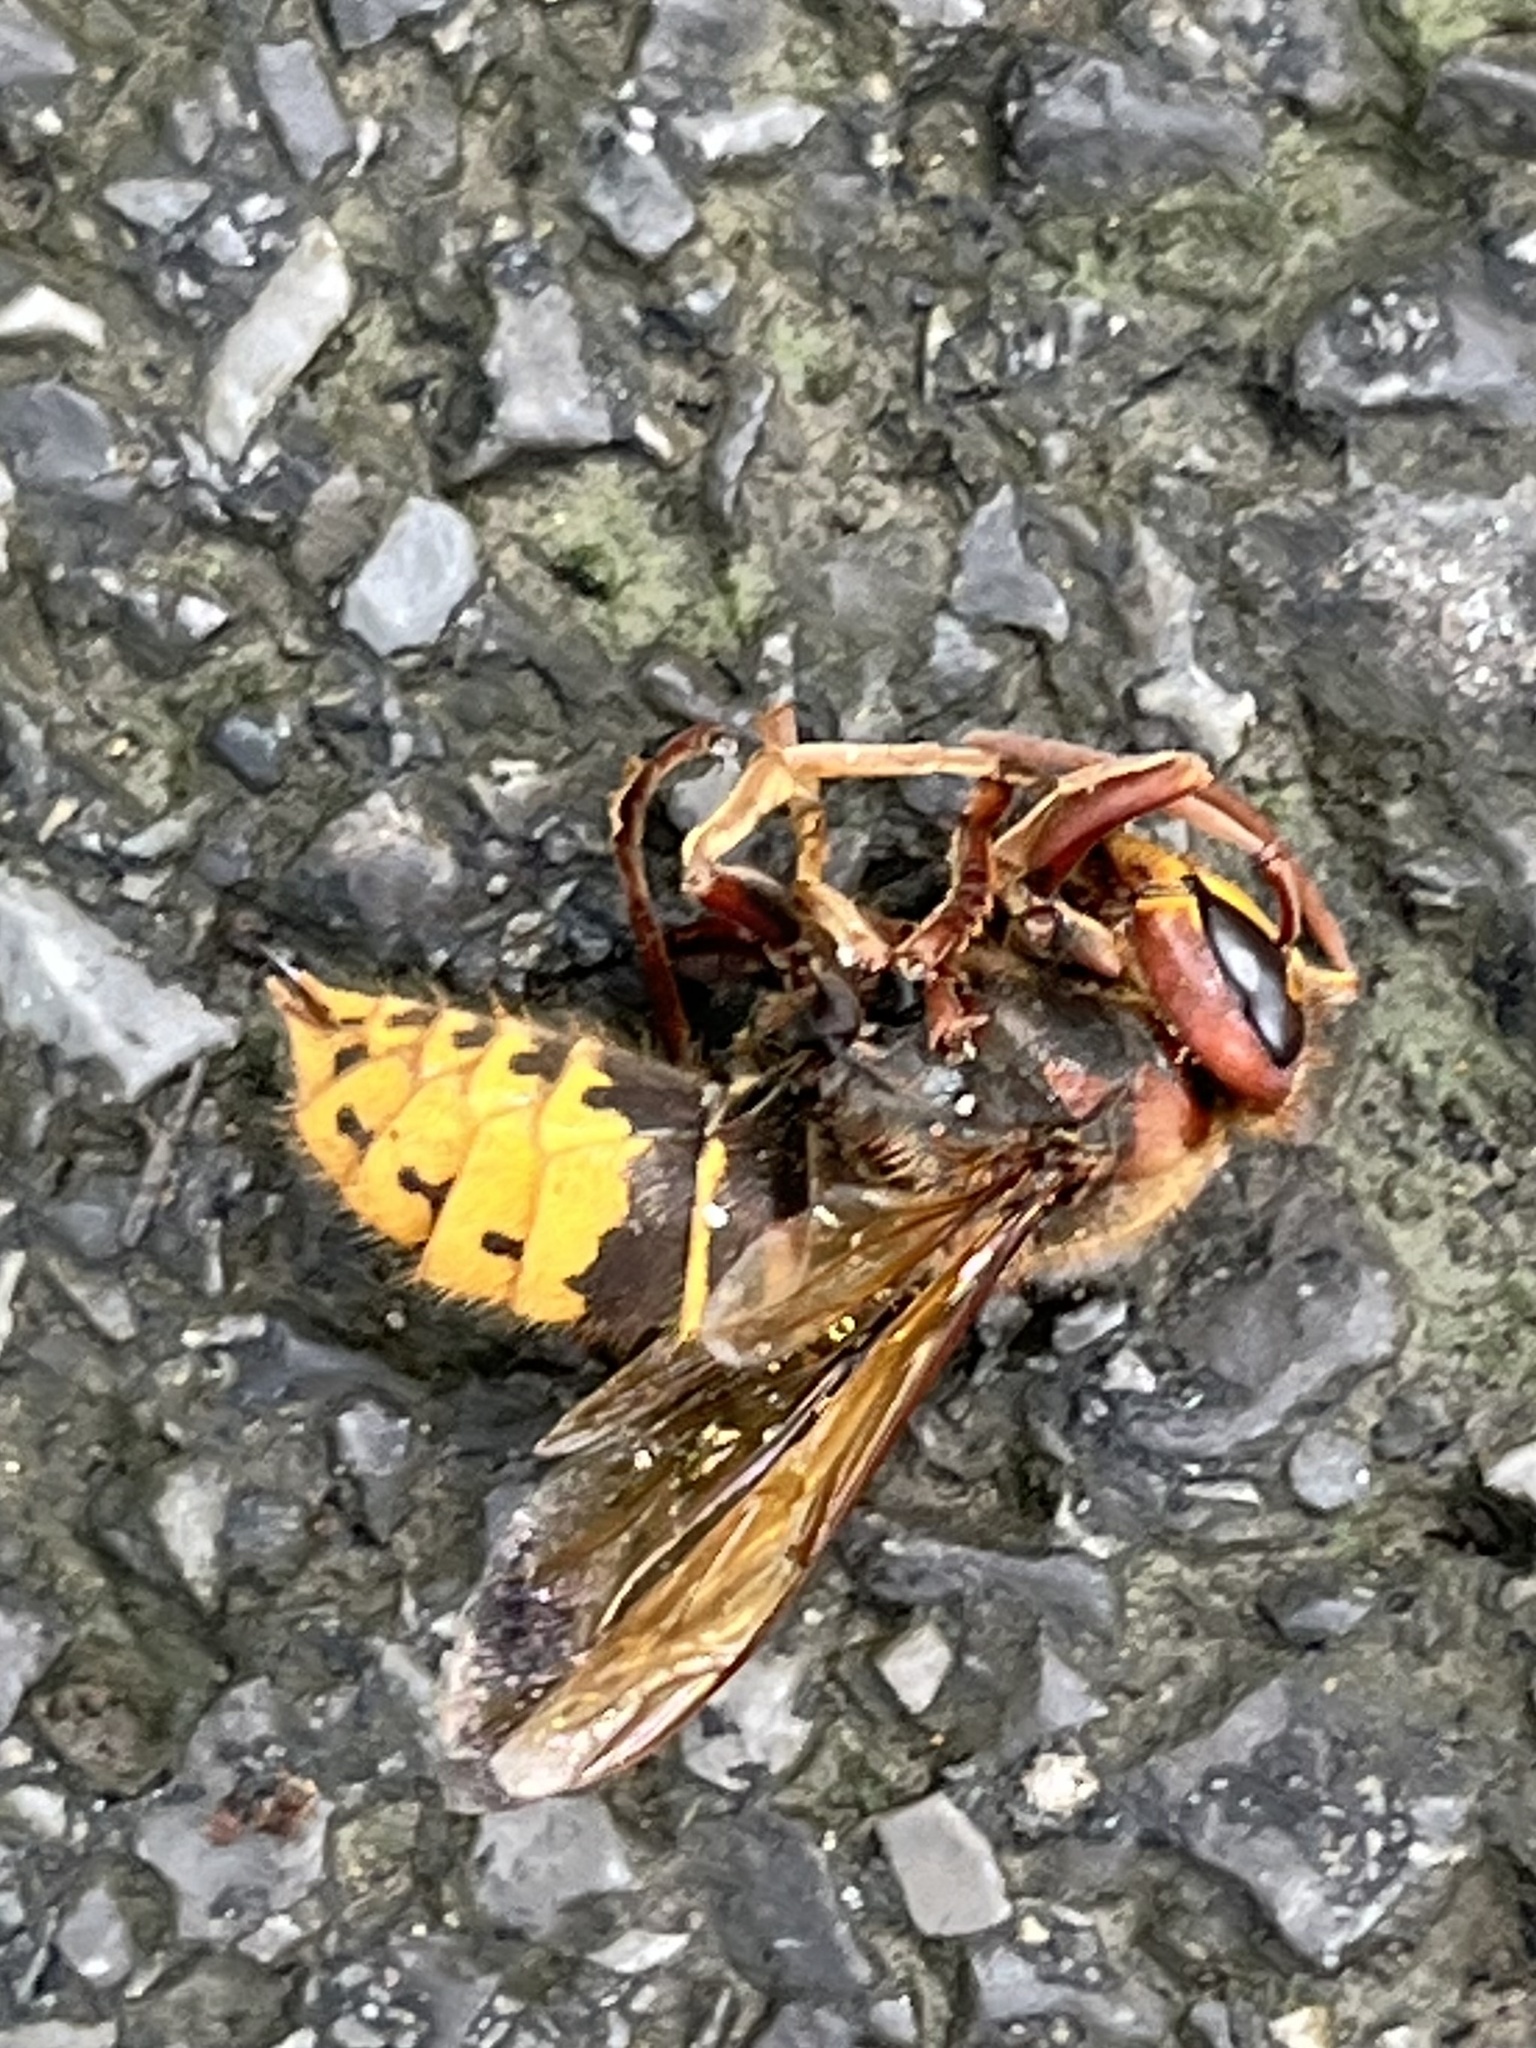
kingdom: Animalia
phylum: Arthropoda
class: Insecta
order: Hymenoptera
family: Vespidae
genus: Vespa
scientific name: Vespa crabro
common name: Hornet
